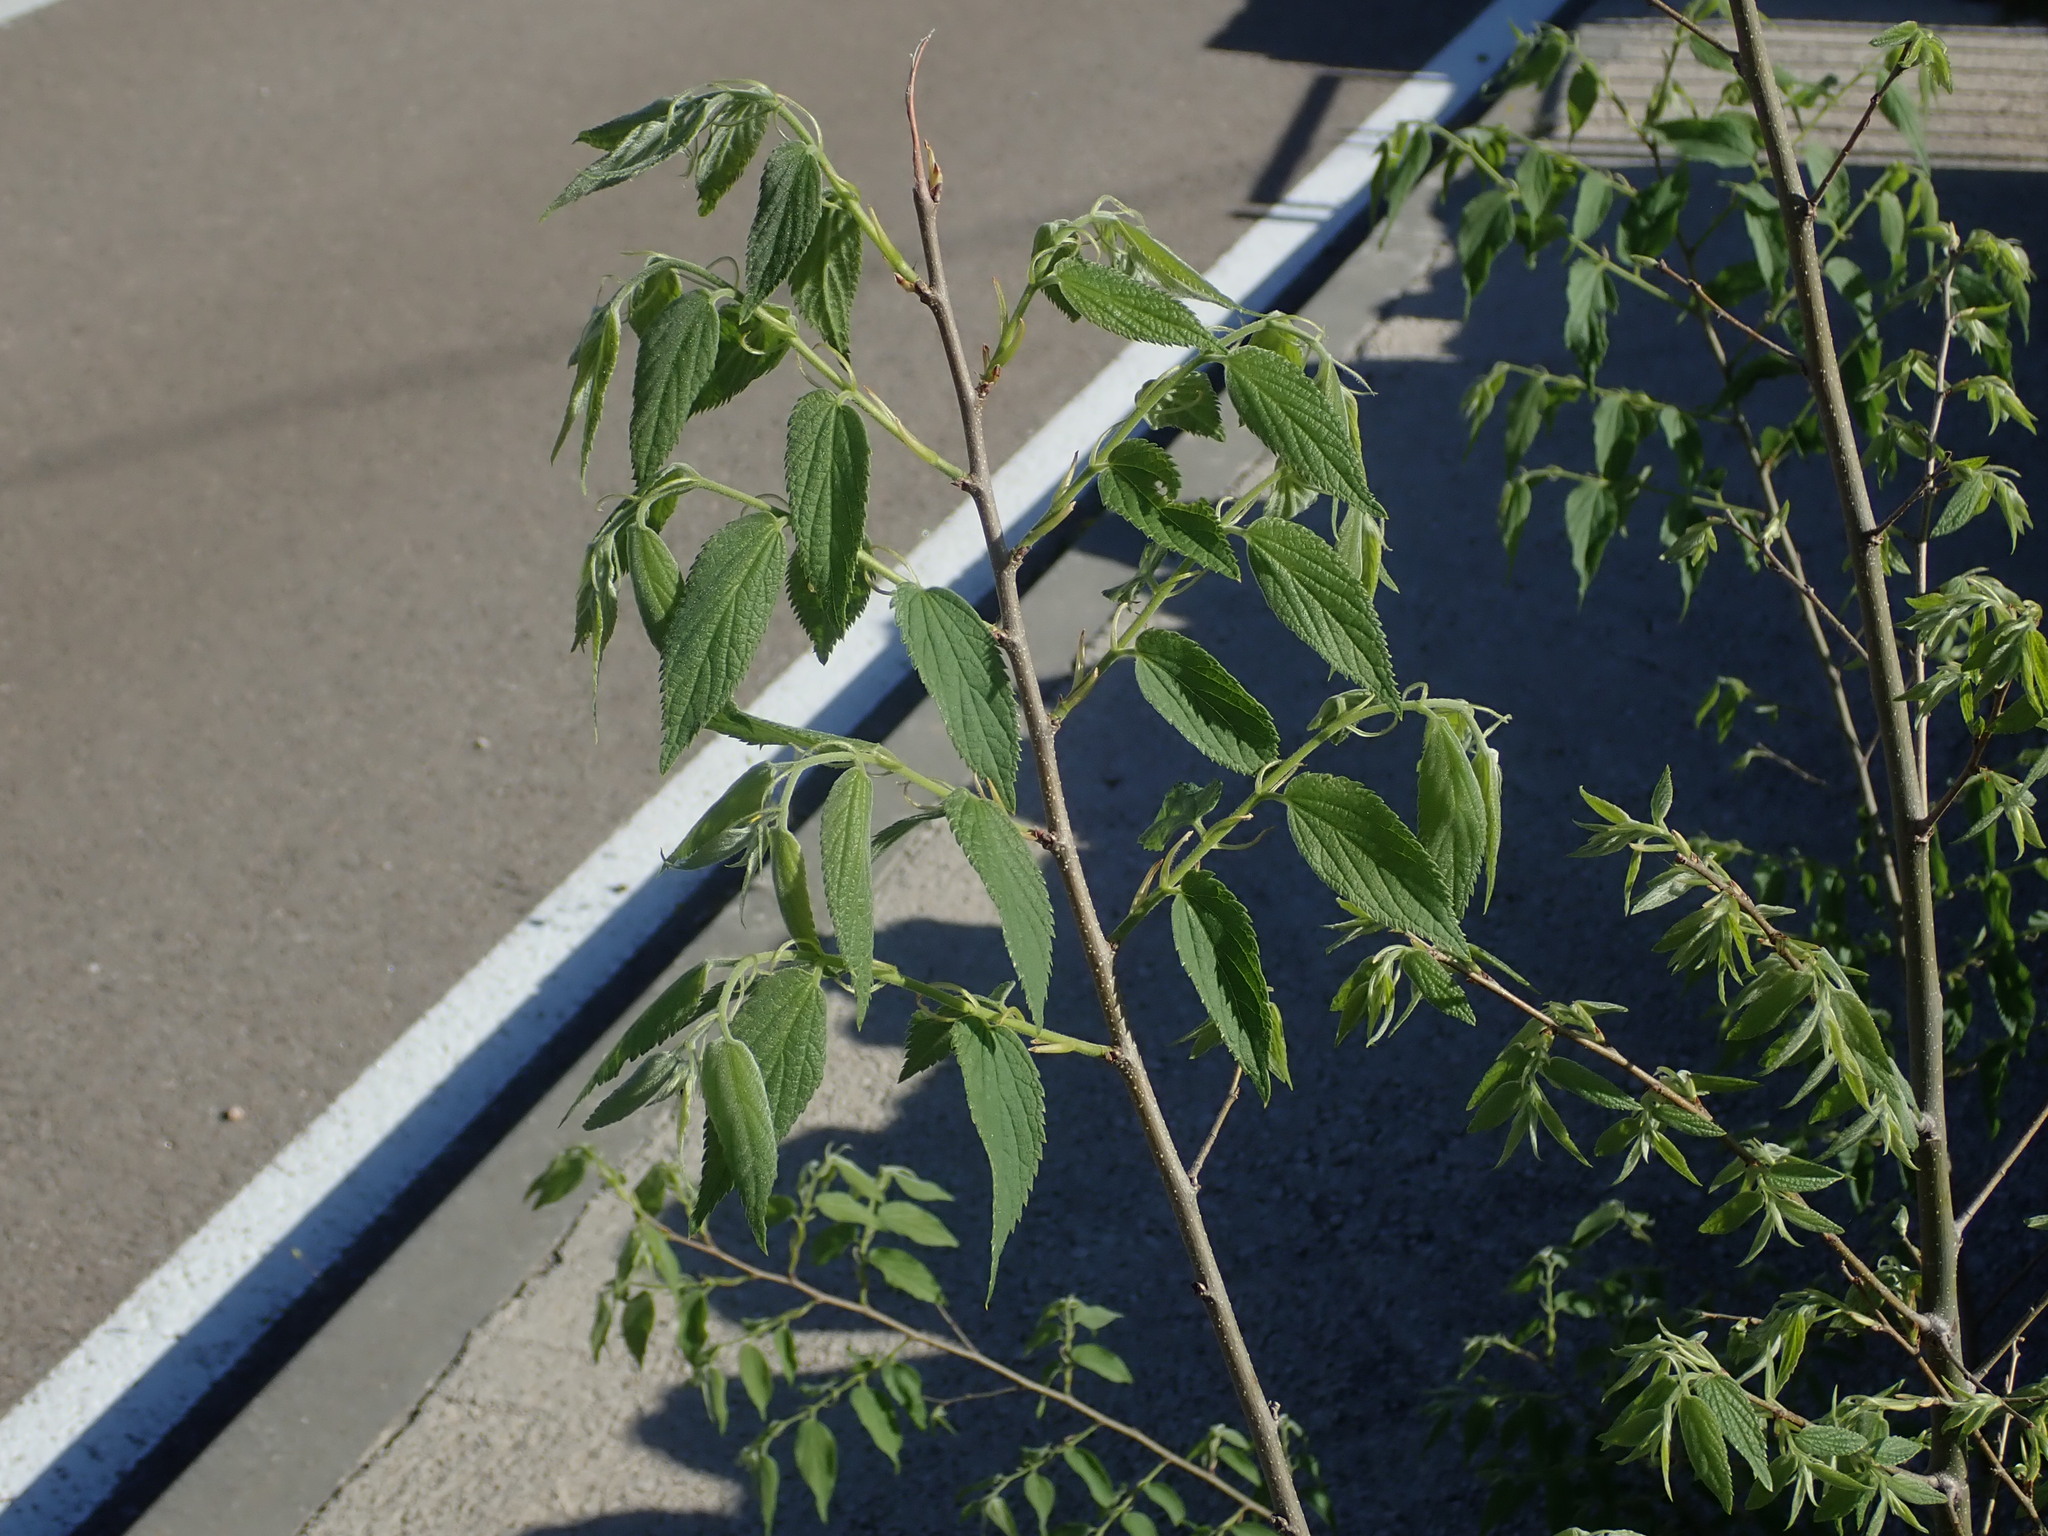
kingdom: Plantae
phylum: Tracheophyta
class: Magnoliopsida
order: Rosales
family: Cannabaceae
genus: Celtis
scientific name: Celtis australis
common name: European hackberry
